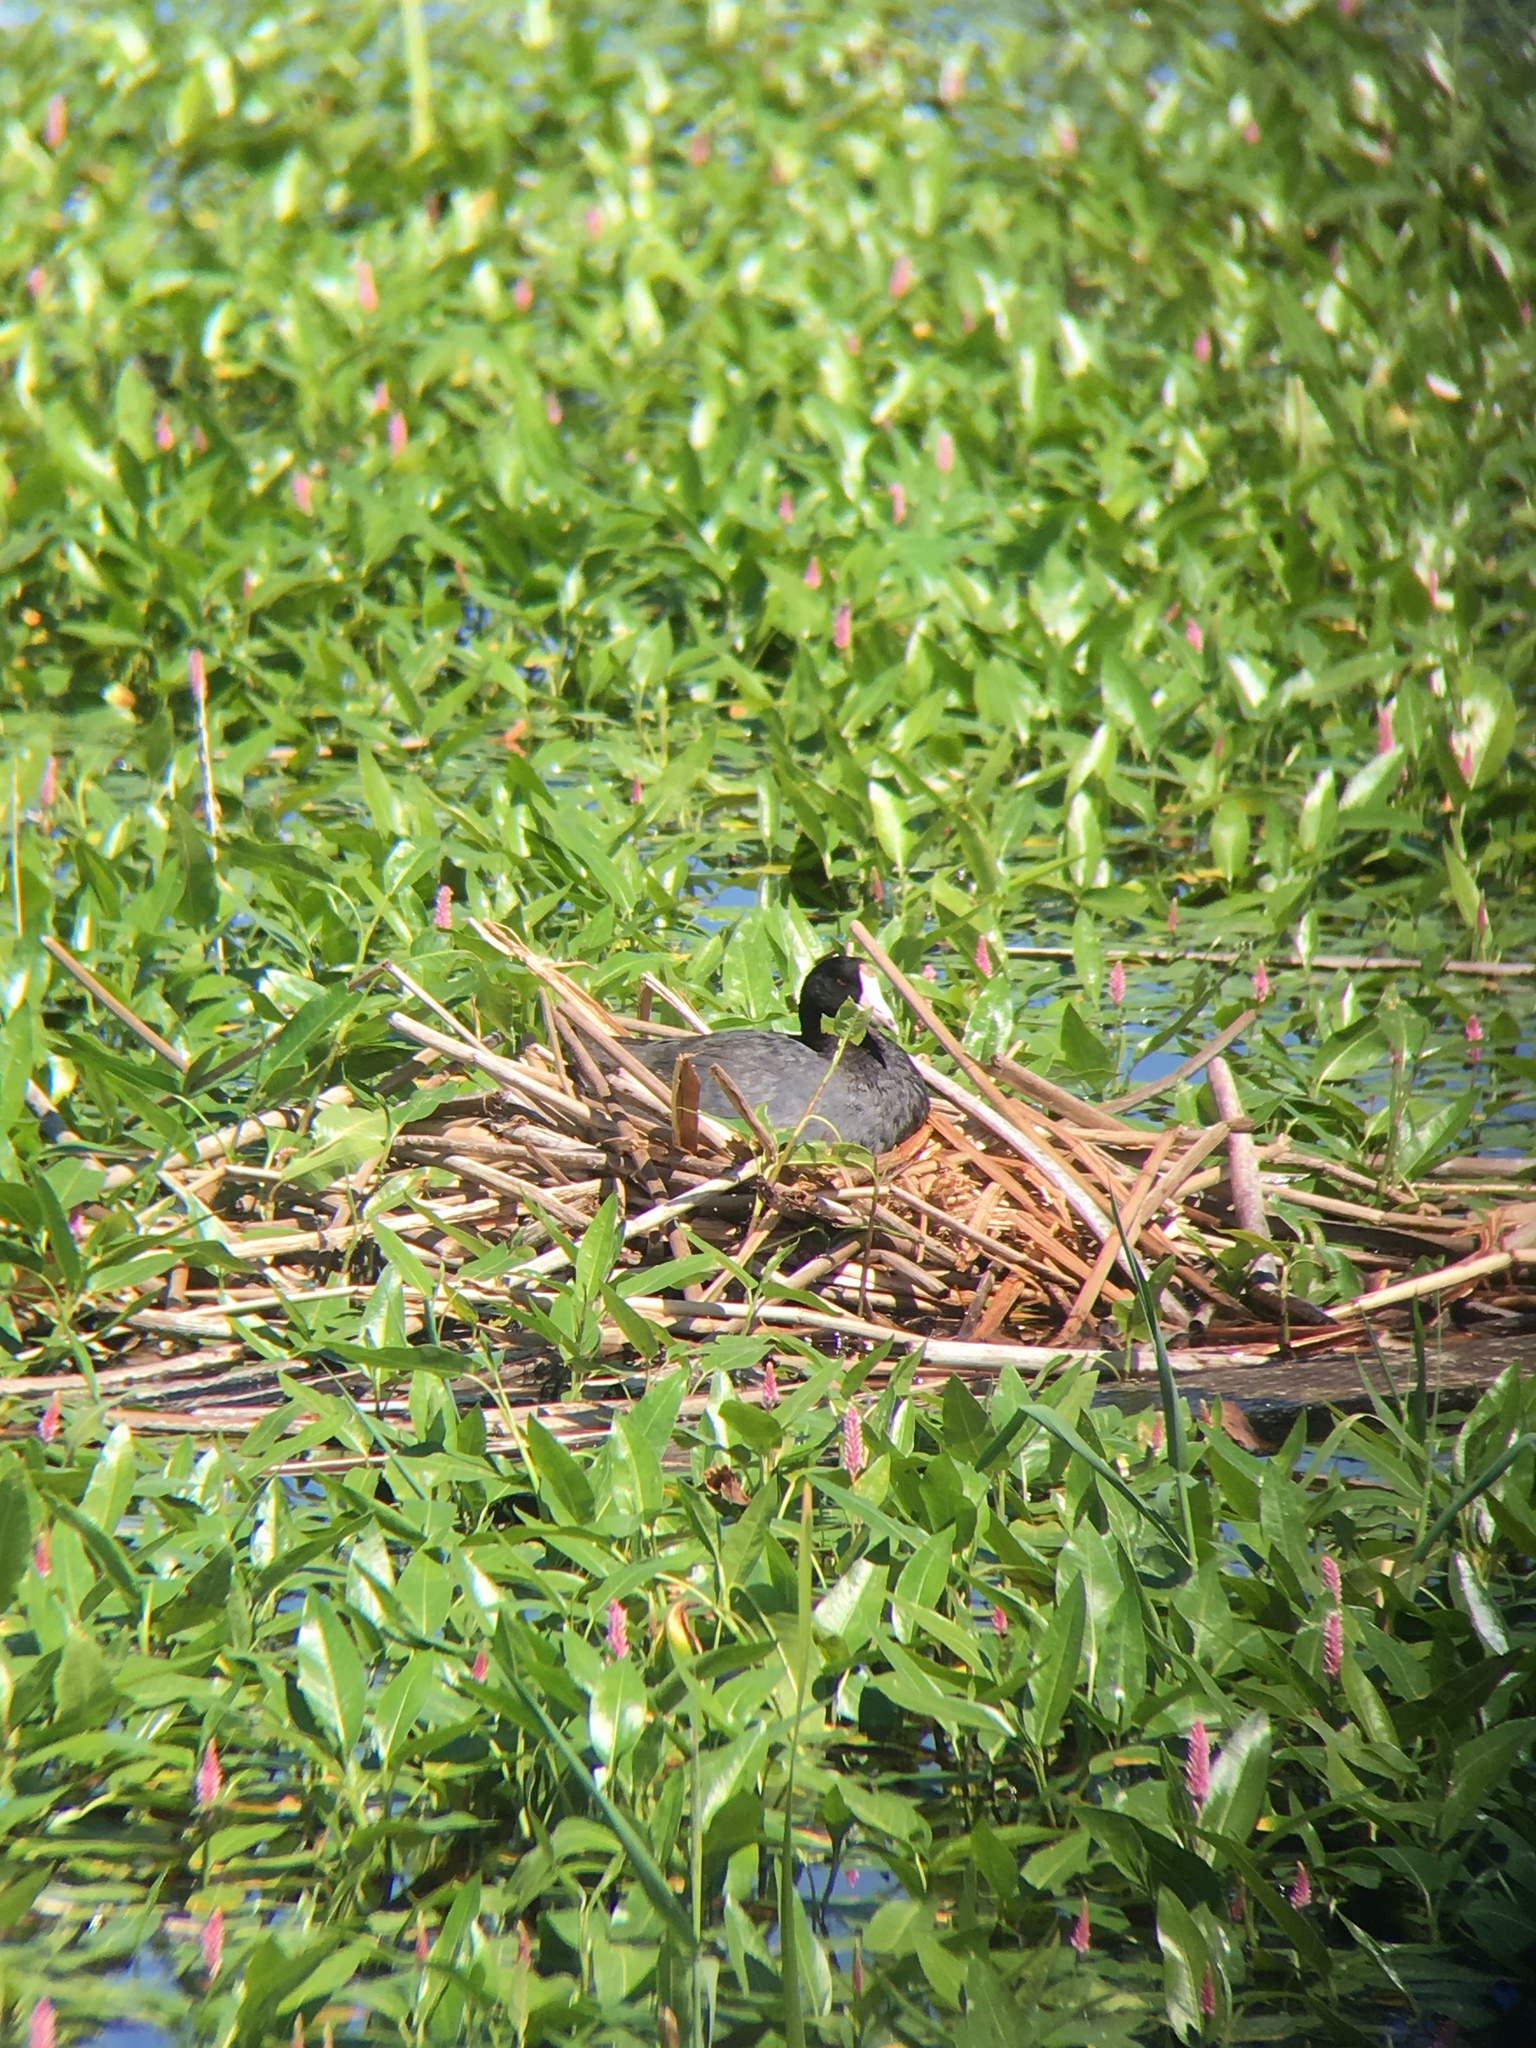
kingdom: Animalia
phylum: Chordata
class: Aves
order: Gruiformes
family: Rallidae
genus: Fulica
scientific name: Fulica americana
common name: American coot
